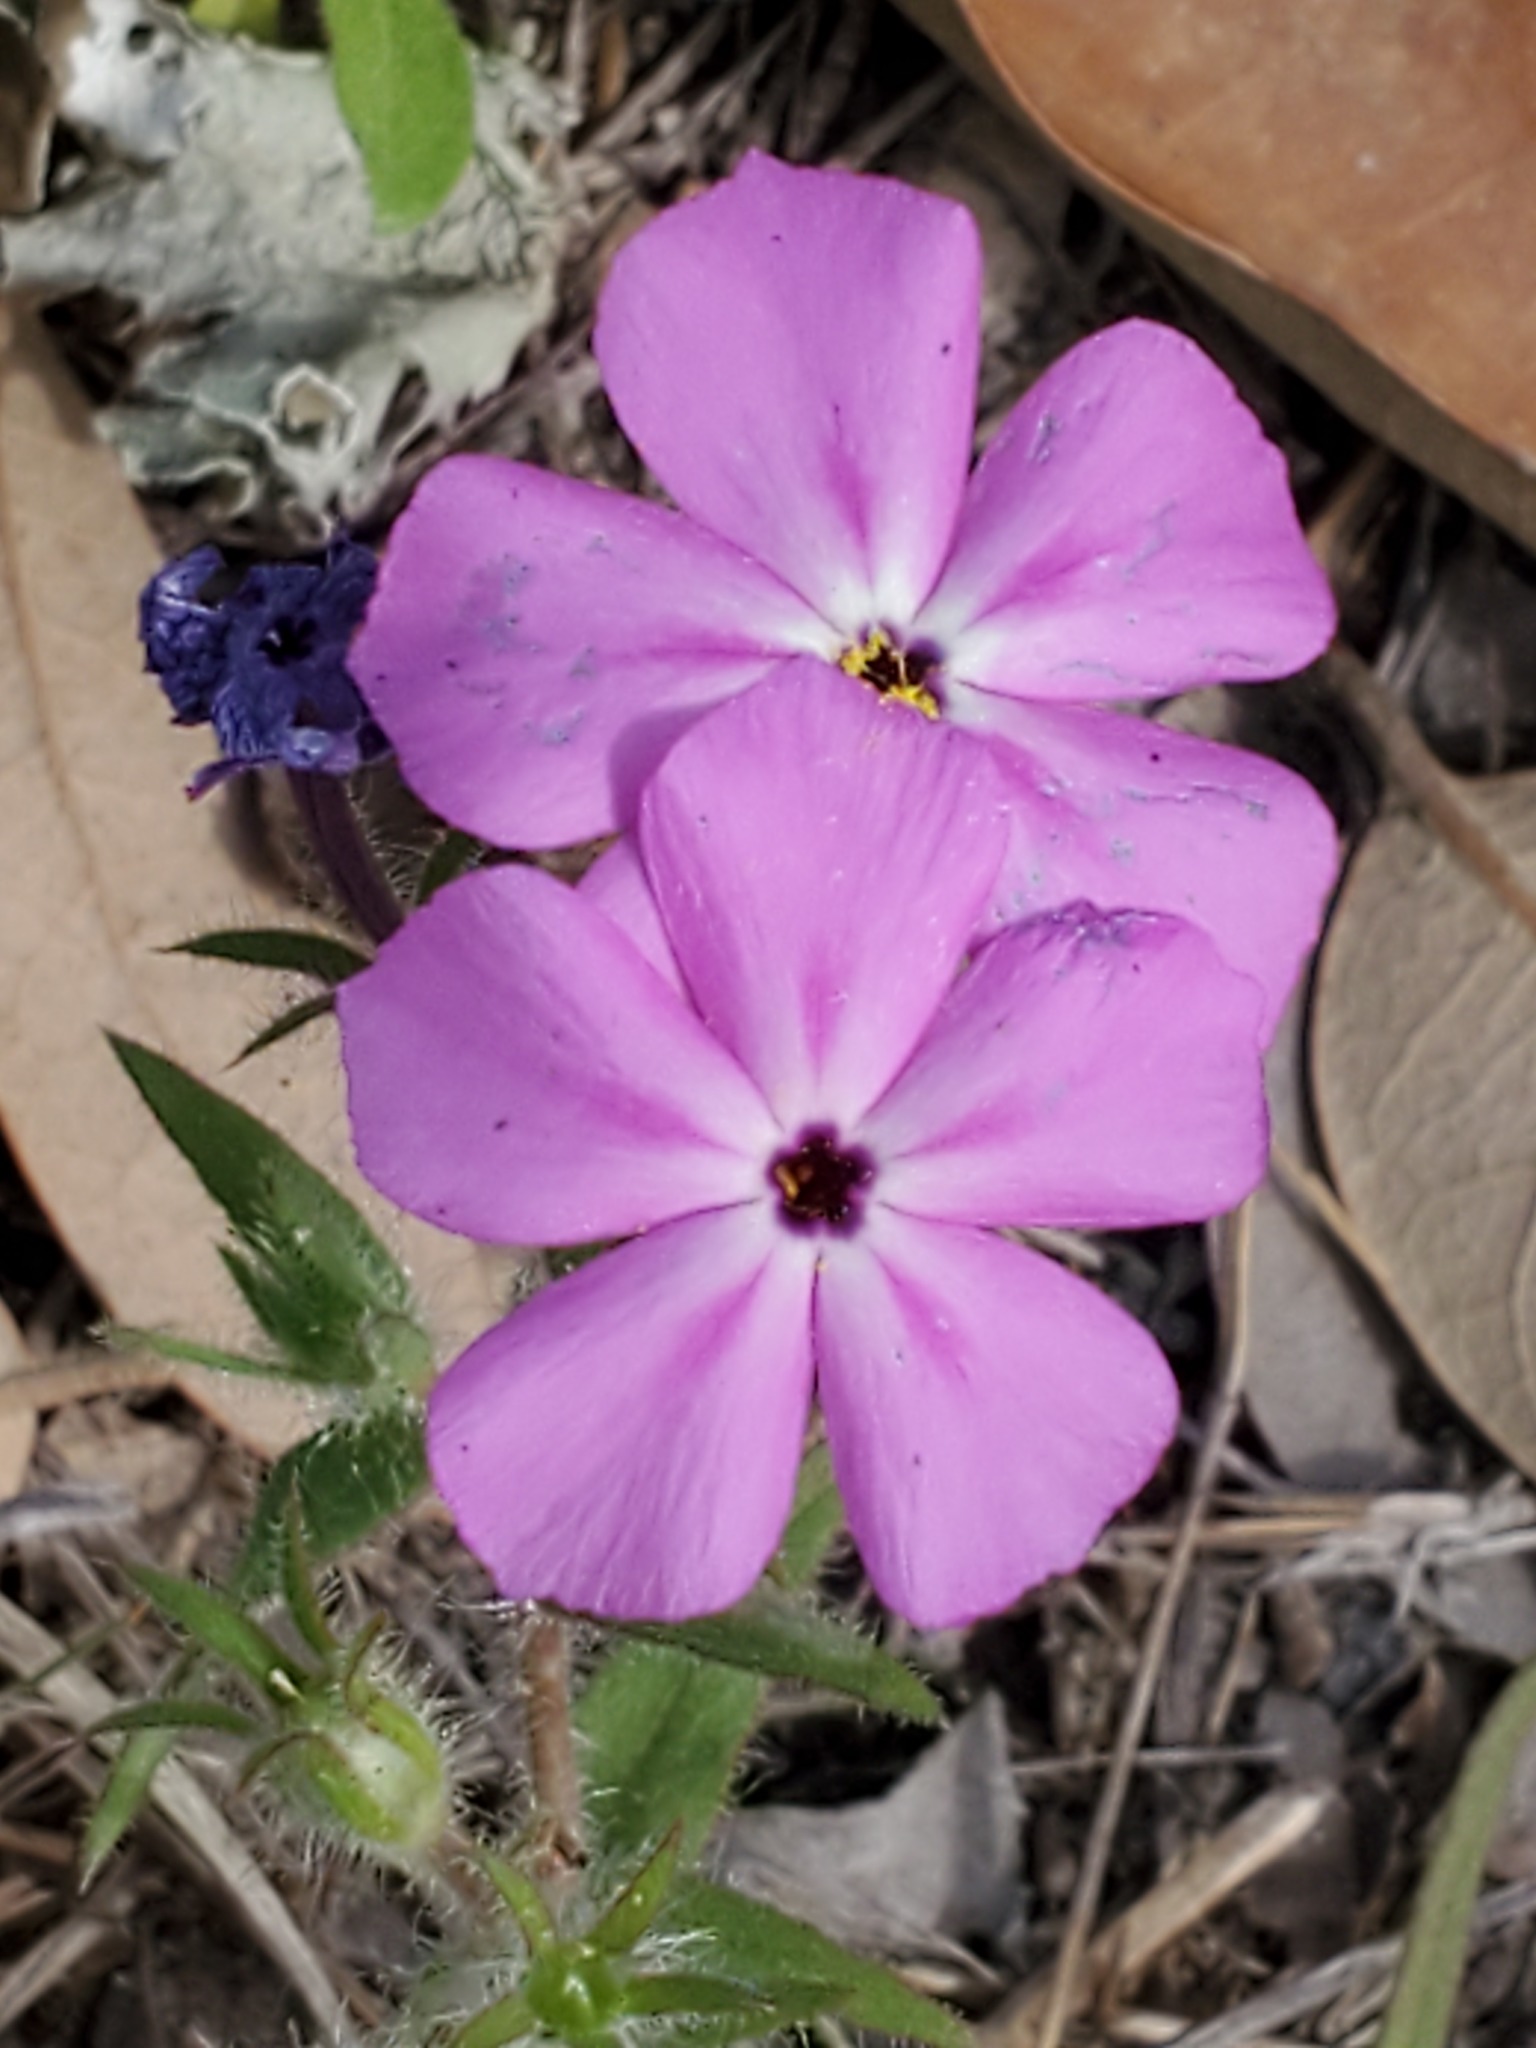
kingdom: Plantae
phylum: Tracheophyta
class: Magnoliopsida
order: Ericales
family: Polemoniaceae
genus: Phlox
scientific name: Phlox glabriflora
